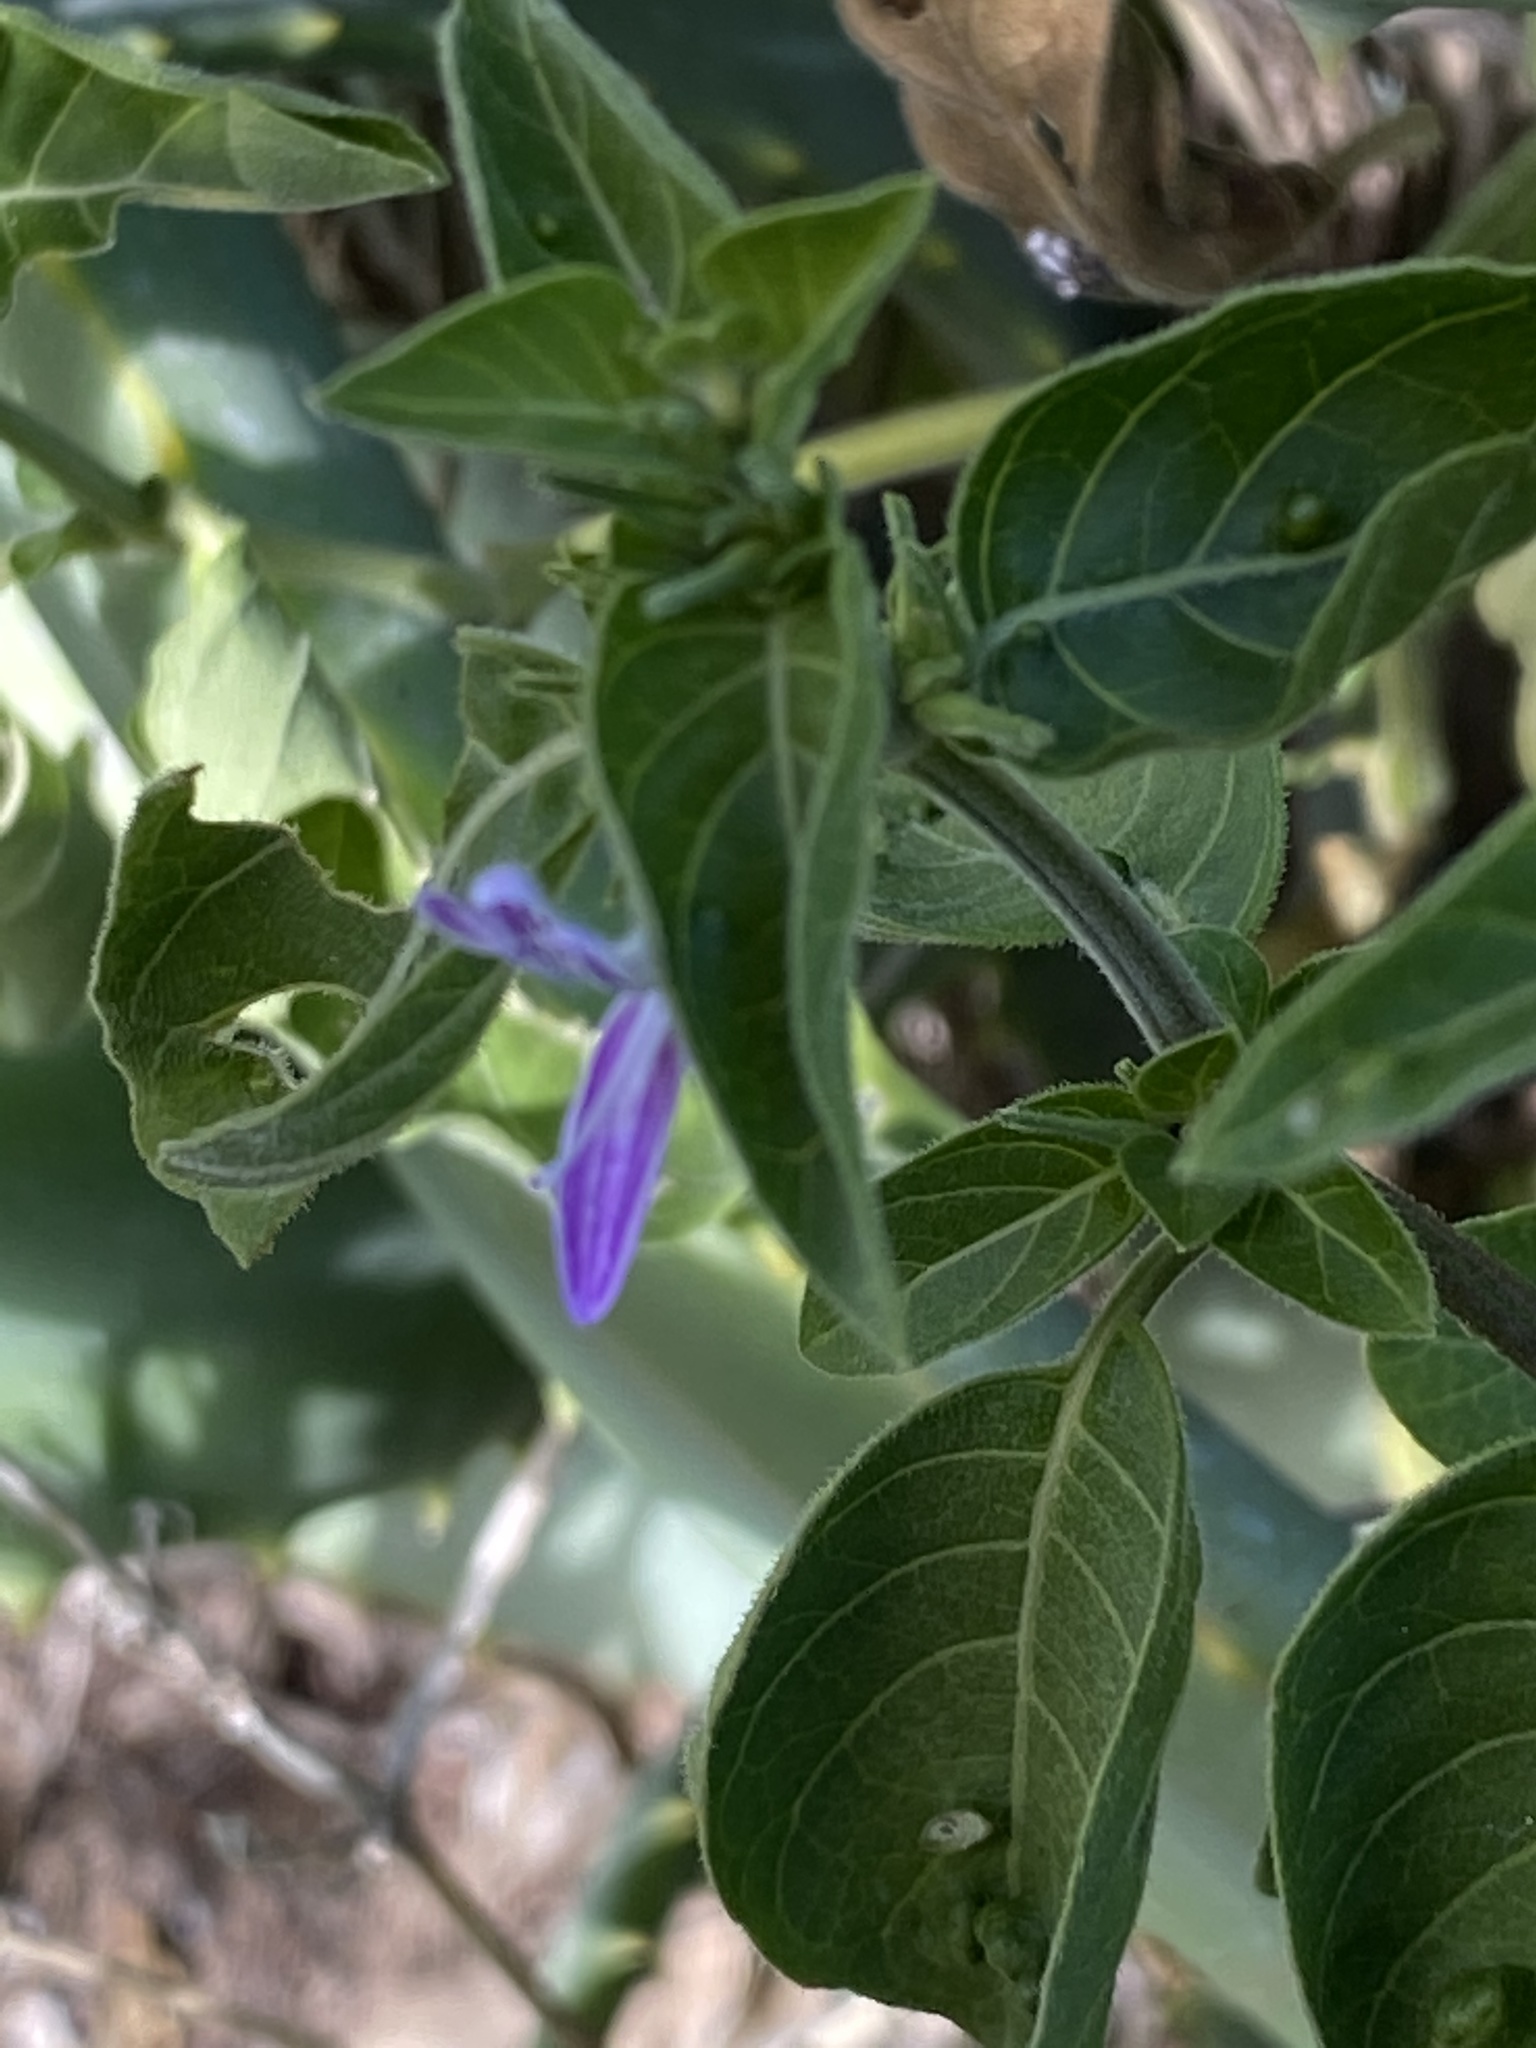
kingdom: Plantae
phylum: Tracheophyta
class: Magnoliopsida
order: Lamiales
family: Acanthaceae
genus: Hypoestes
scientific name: Hypoestes aristata
